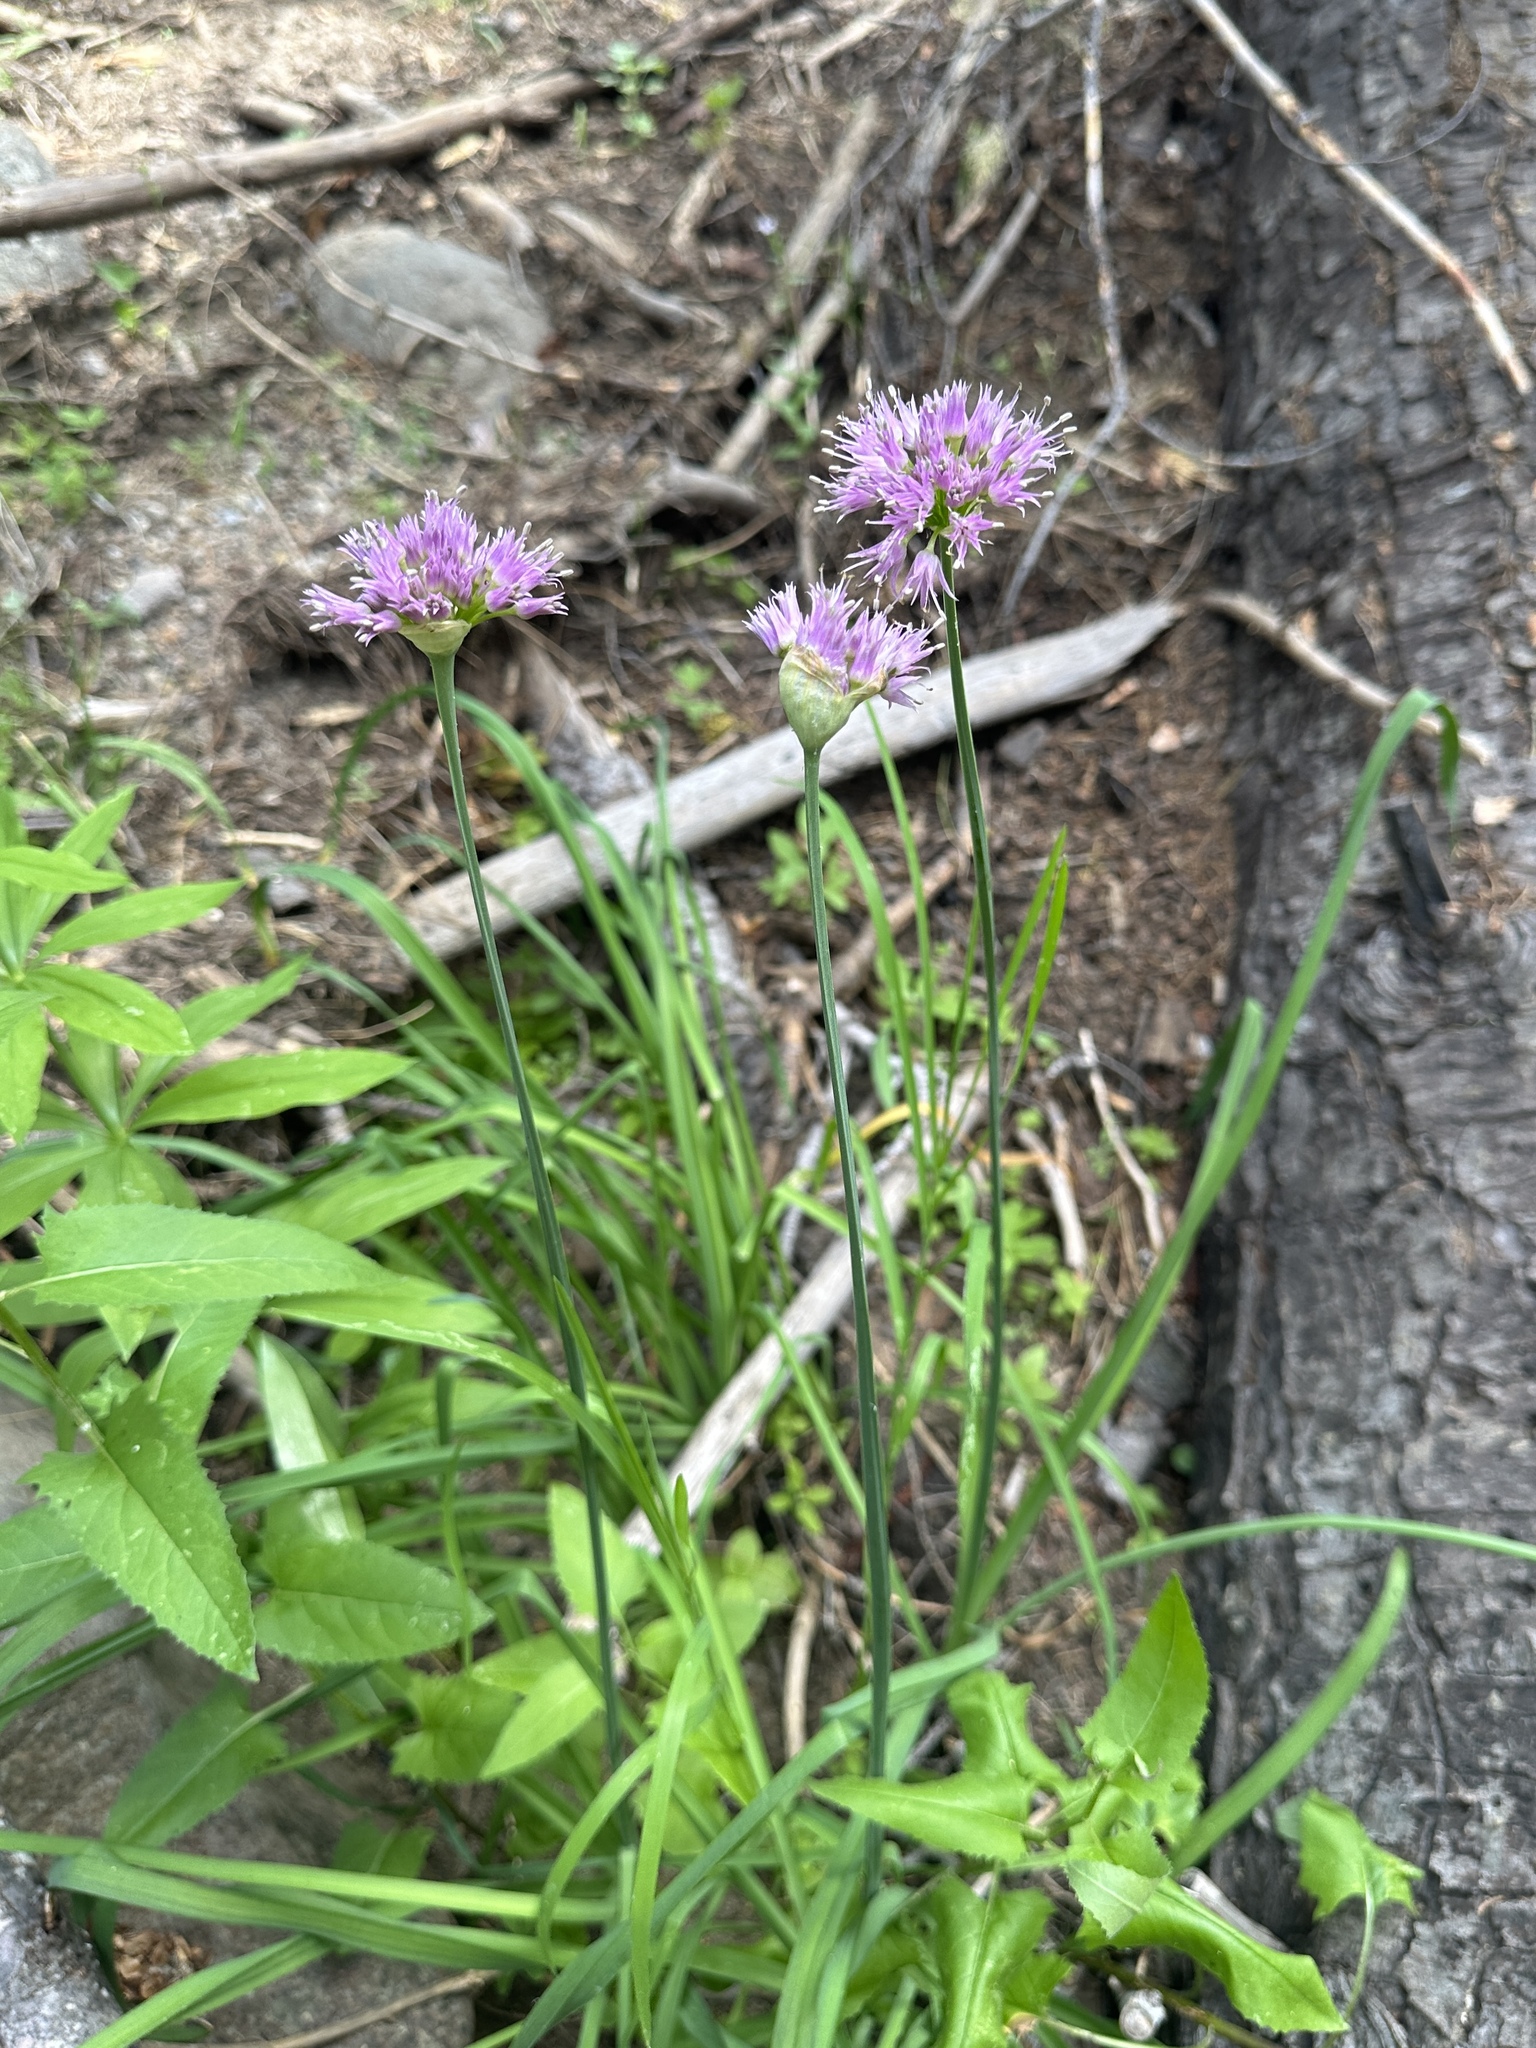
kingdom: Plantae
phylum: Tracheophyta
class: Liliopsida
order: Asparagales
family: Amaryllidaceae
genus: Allium
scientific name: Allium validum
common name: Pacific mountain onion
